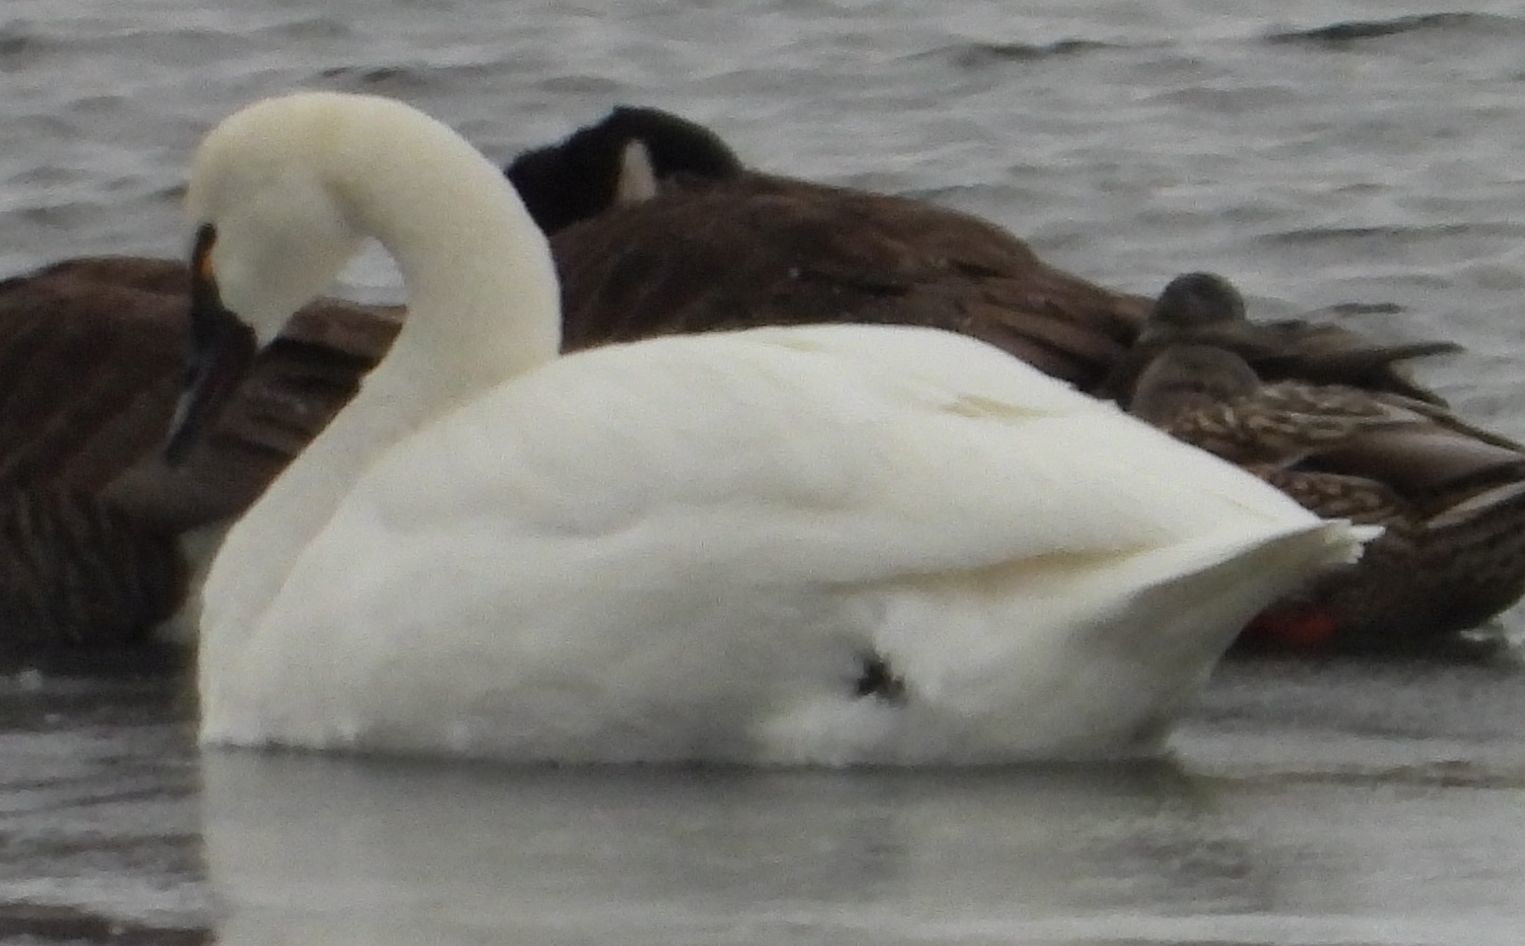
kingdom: Animalia
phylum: Chordata
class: Aves
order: Anseriformes
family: Anatidae
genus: Cygnus
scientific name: Cygnus columbianus
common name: Tundra swan
